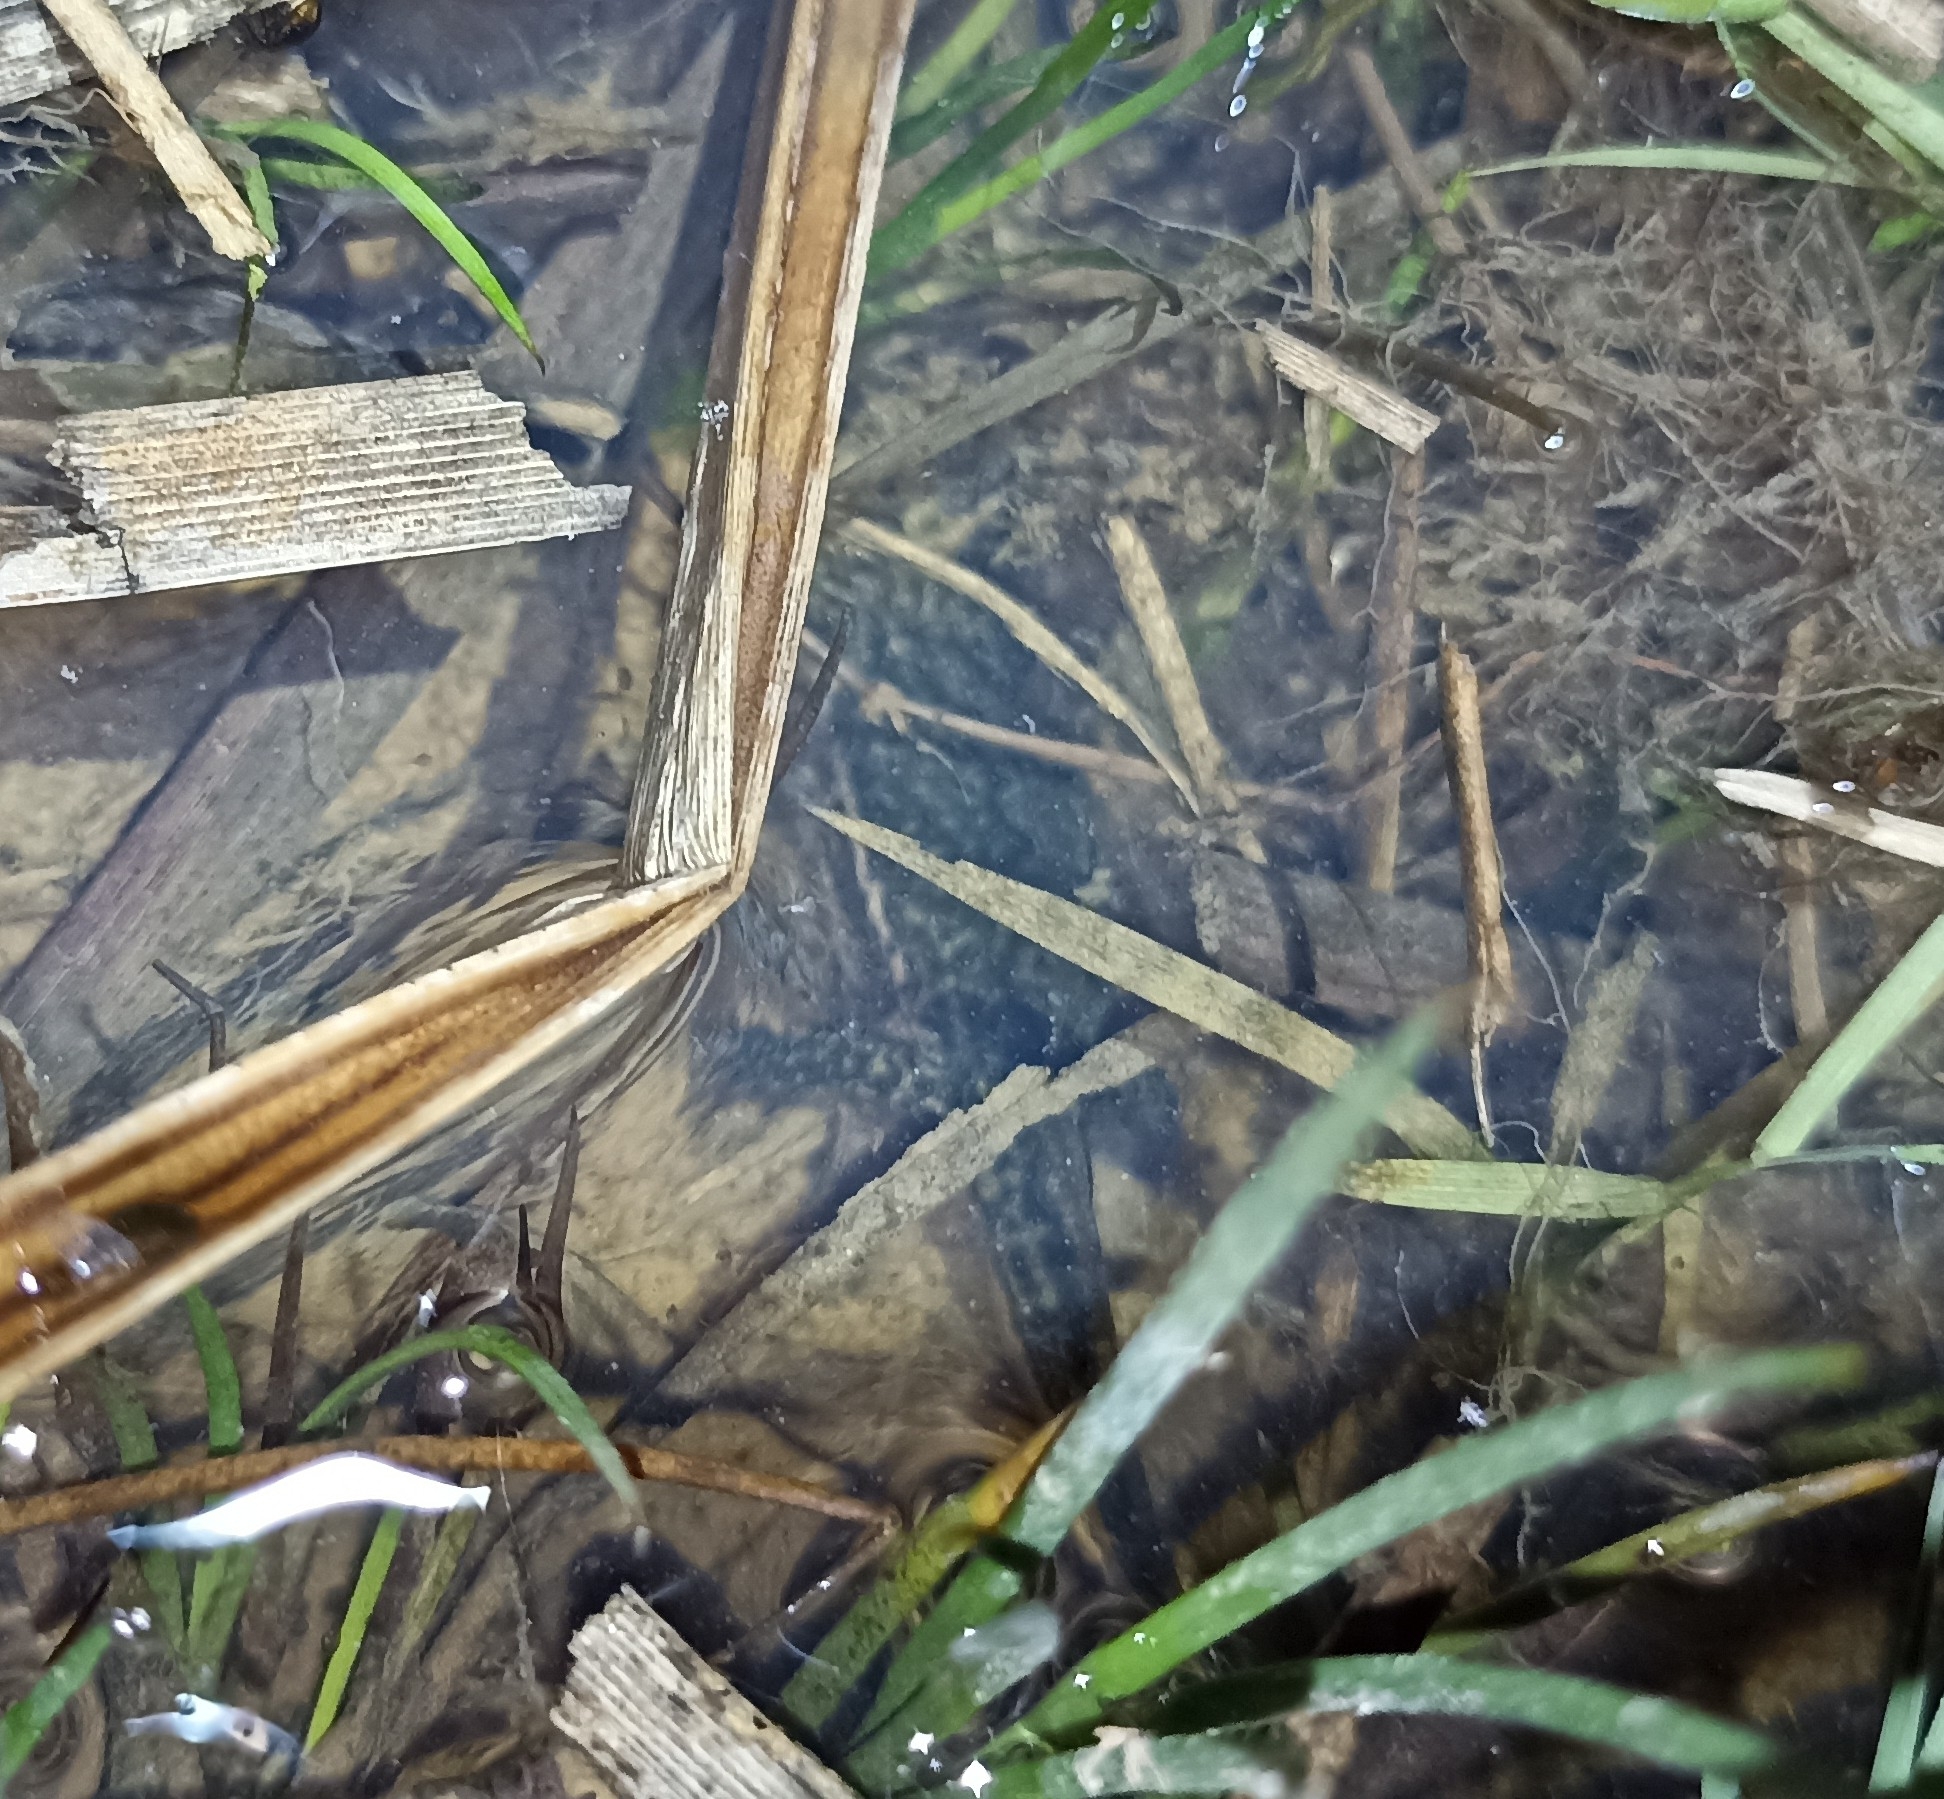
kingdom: Animalia
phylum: Chordata
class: Amphibia
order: Caudata
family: Salamandridae
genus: Lissotriton
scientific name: Lissotriton helveticus
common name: Palmate newt
